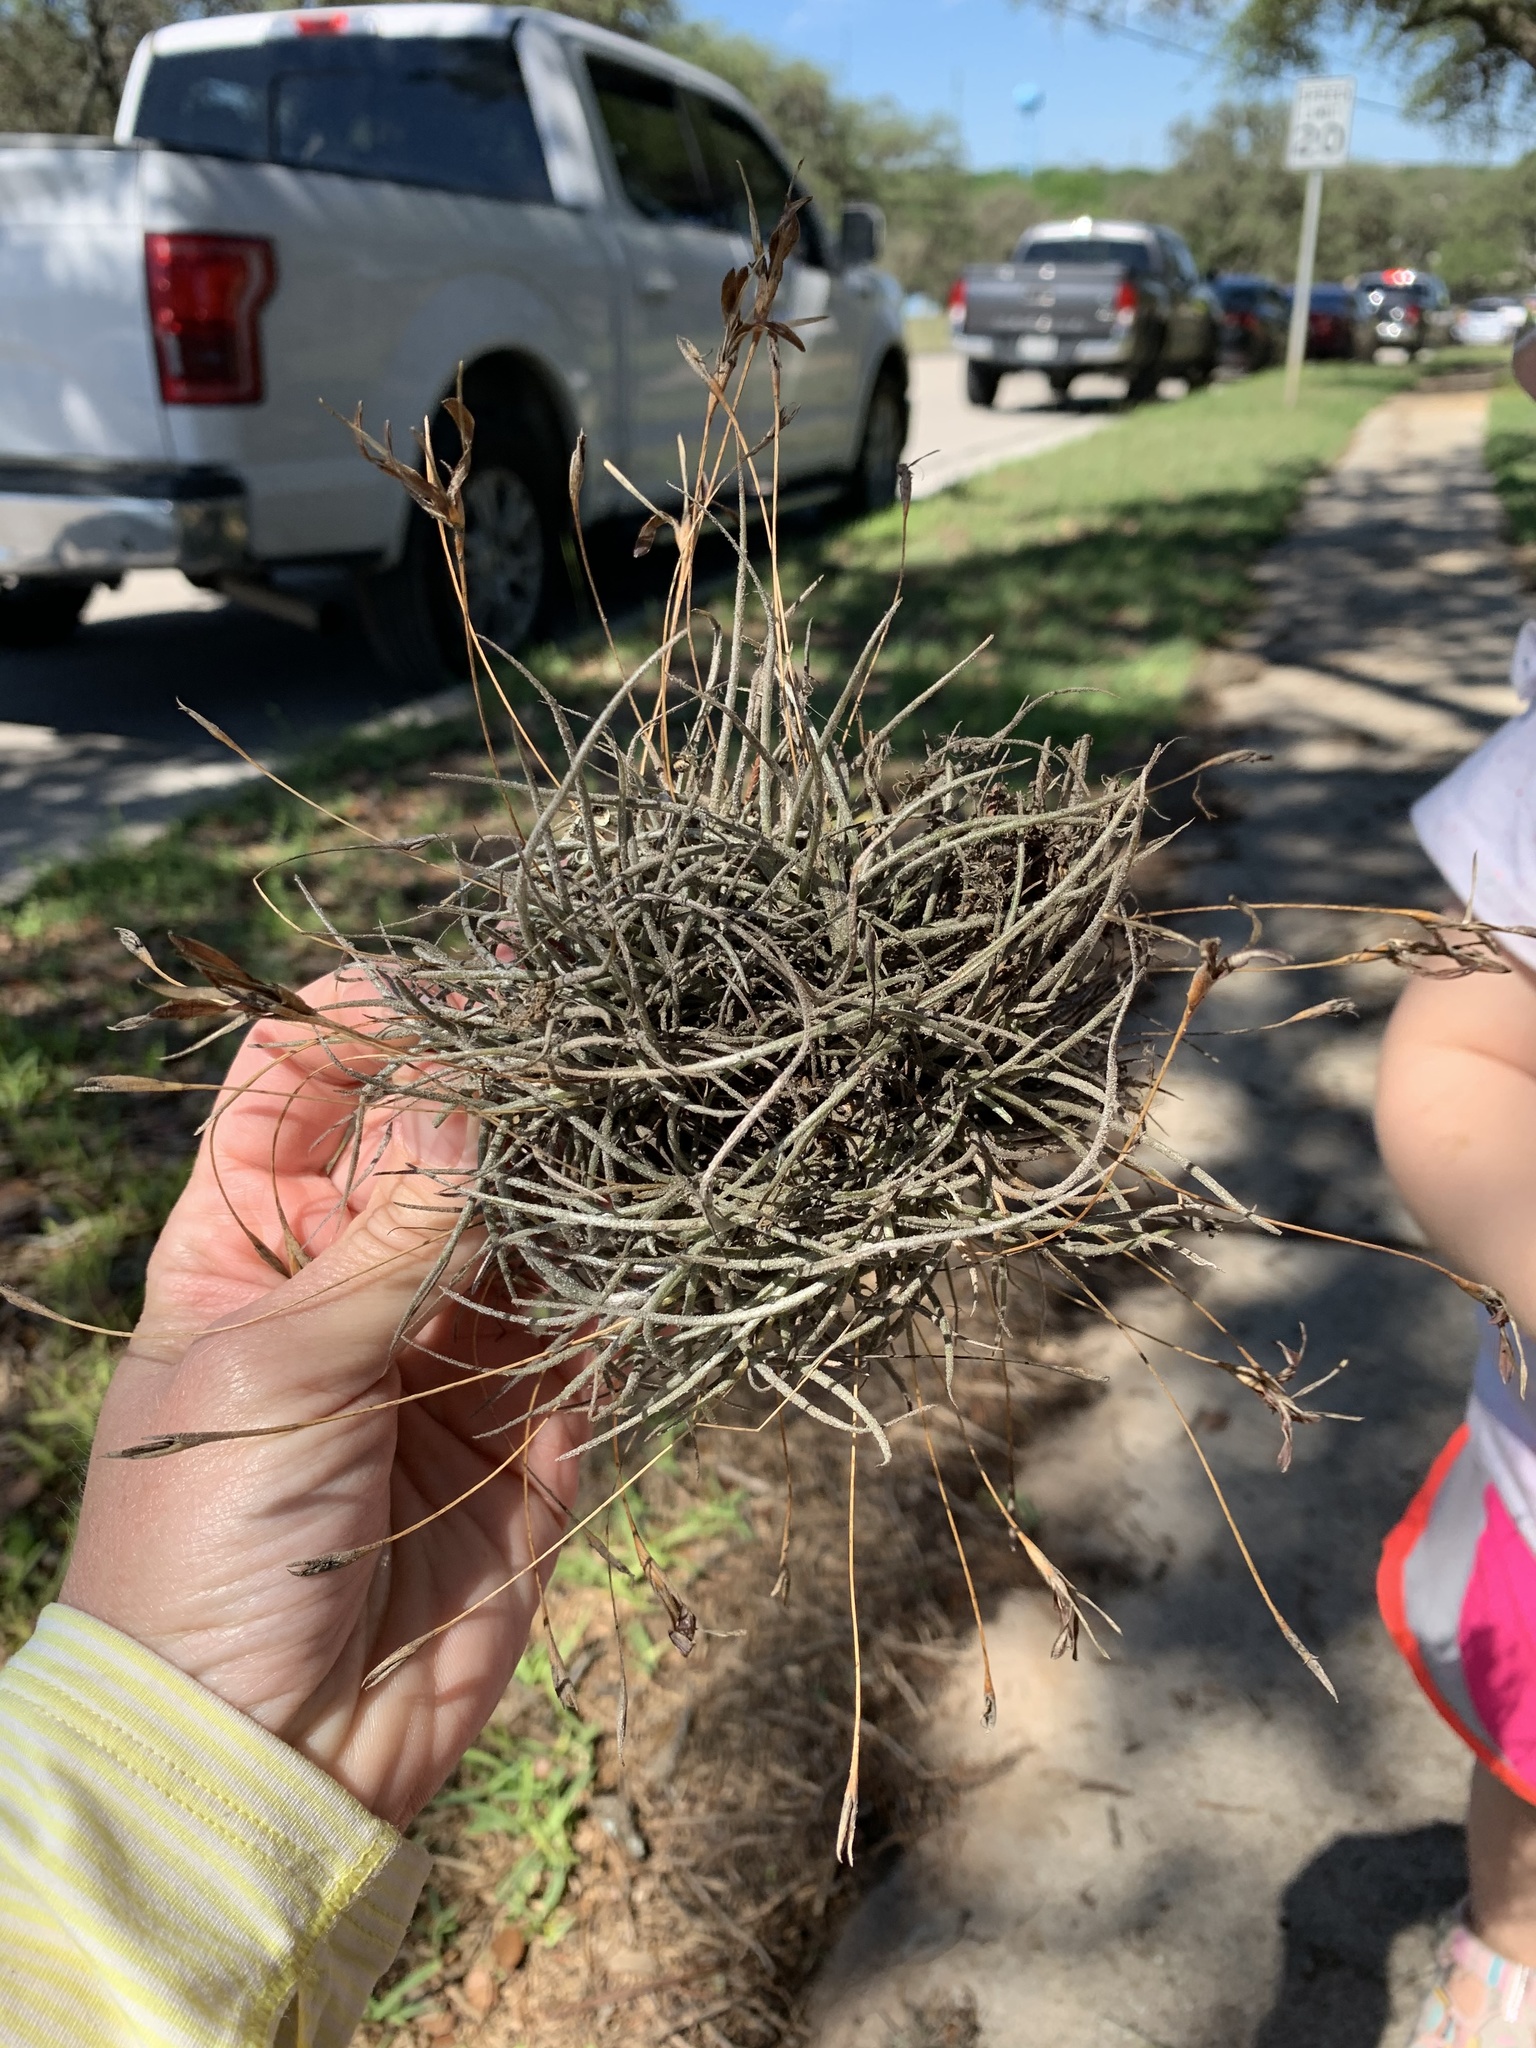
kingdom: Plantae
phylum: Tracheophyta
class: Liliopsida
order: Poales
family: Bromeliaceae
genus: Tillandsia
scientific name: Tillandsia recurvata
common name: Small ballmoss
